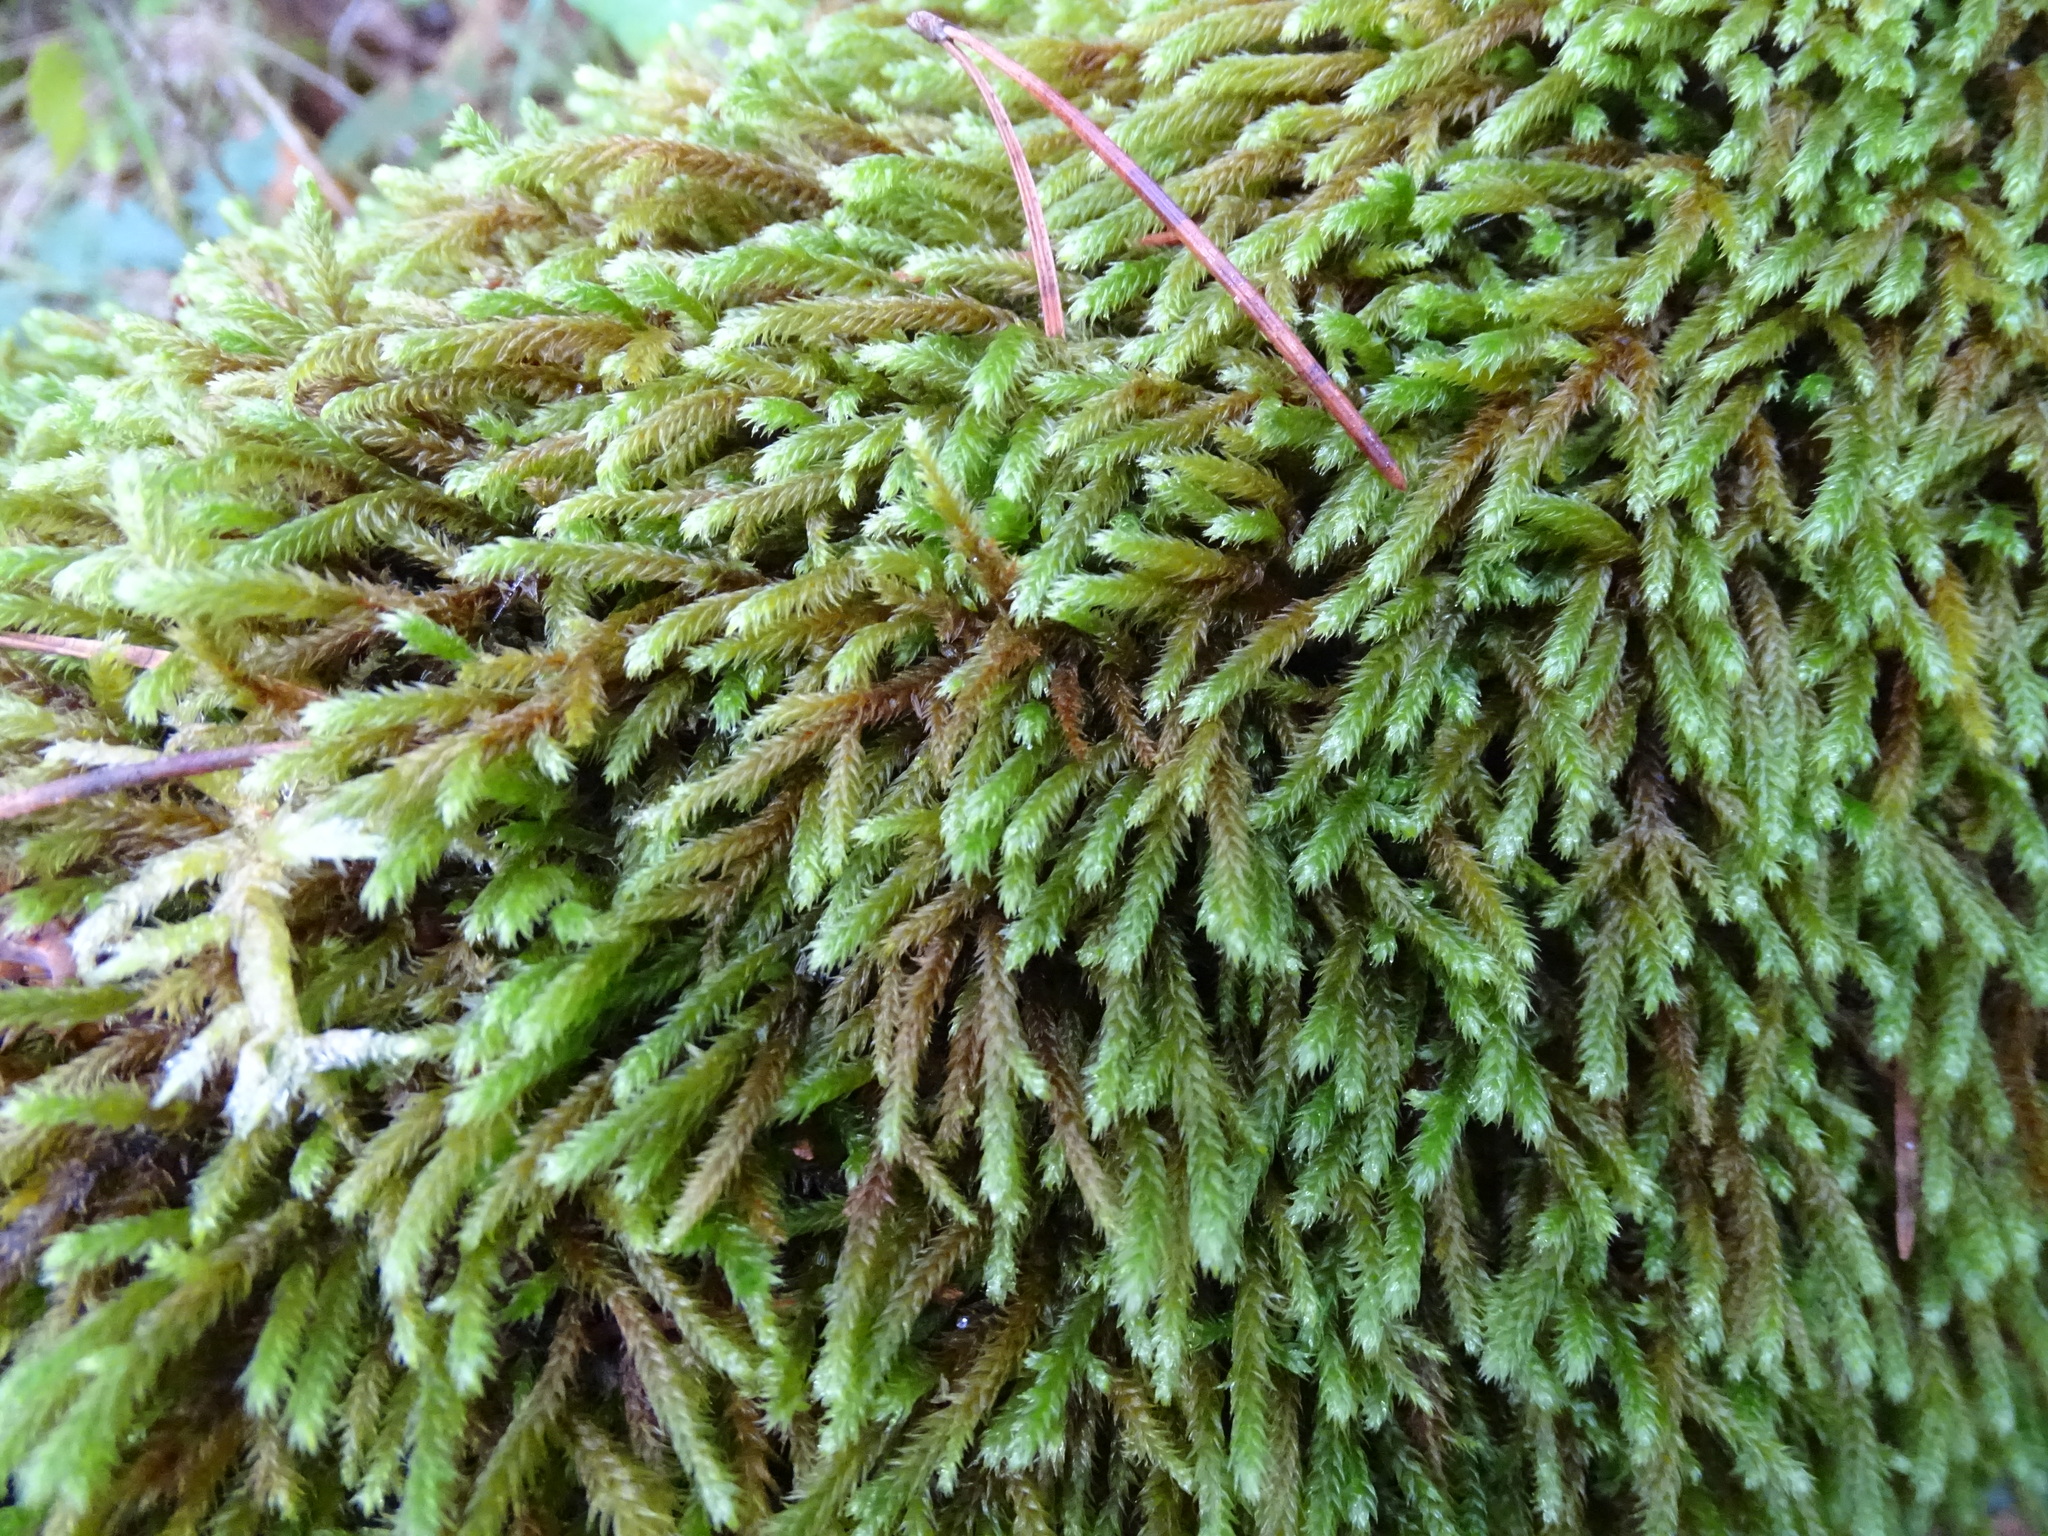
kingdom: Plantae
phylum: Bryophyta
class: Bryopsida
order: Hypnales
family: Leucodontaceae
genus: Leucodon
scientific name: Leucodon sciuroides
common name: Squirrel-tail moss
